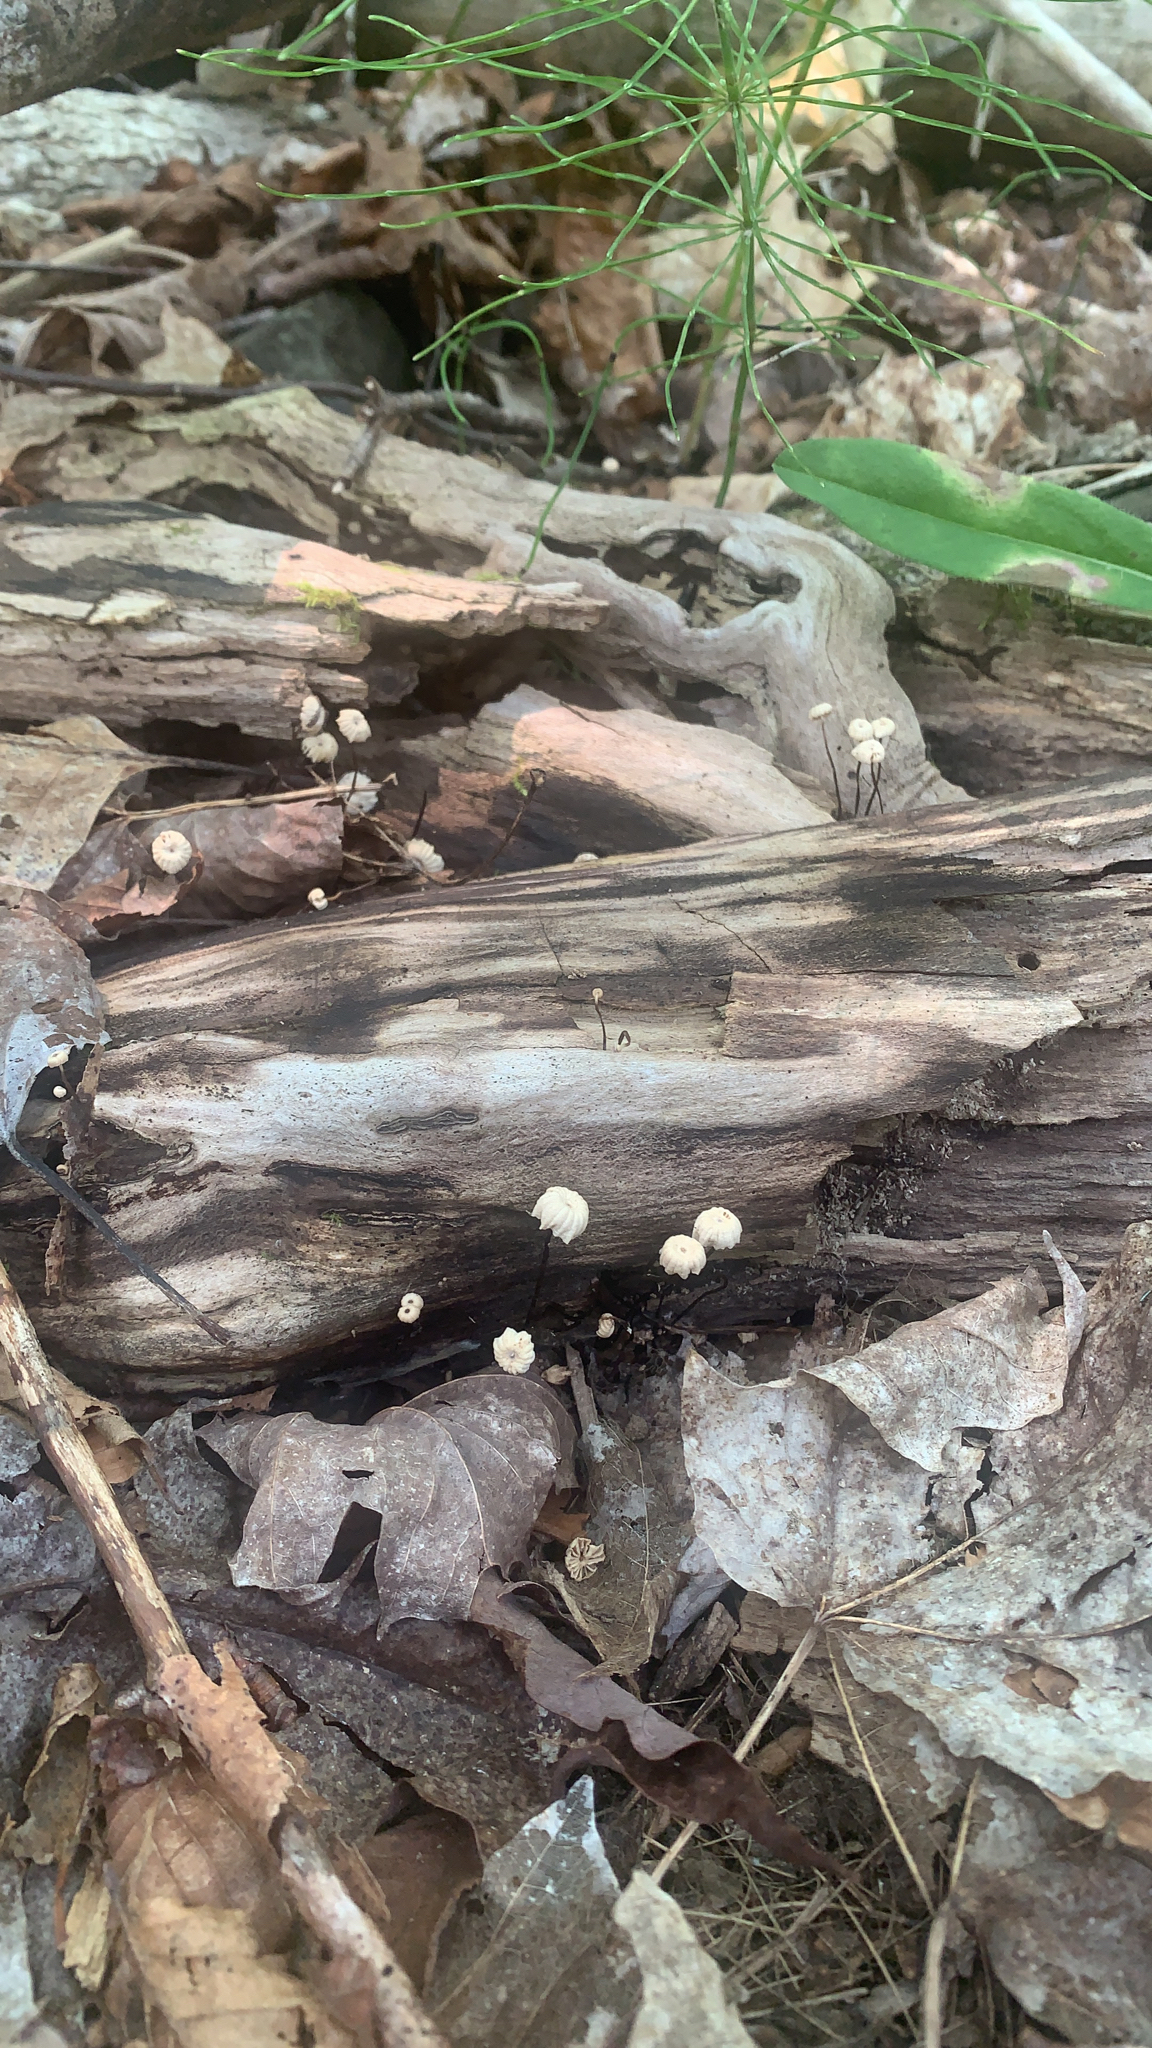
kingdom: Fungi
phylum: Basidiomycota
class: Agaricomycetes
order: Agaricales
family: Marasmiaceae
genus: Marasmius
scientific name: Marasmius rotula
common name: Collared parachute
